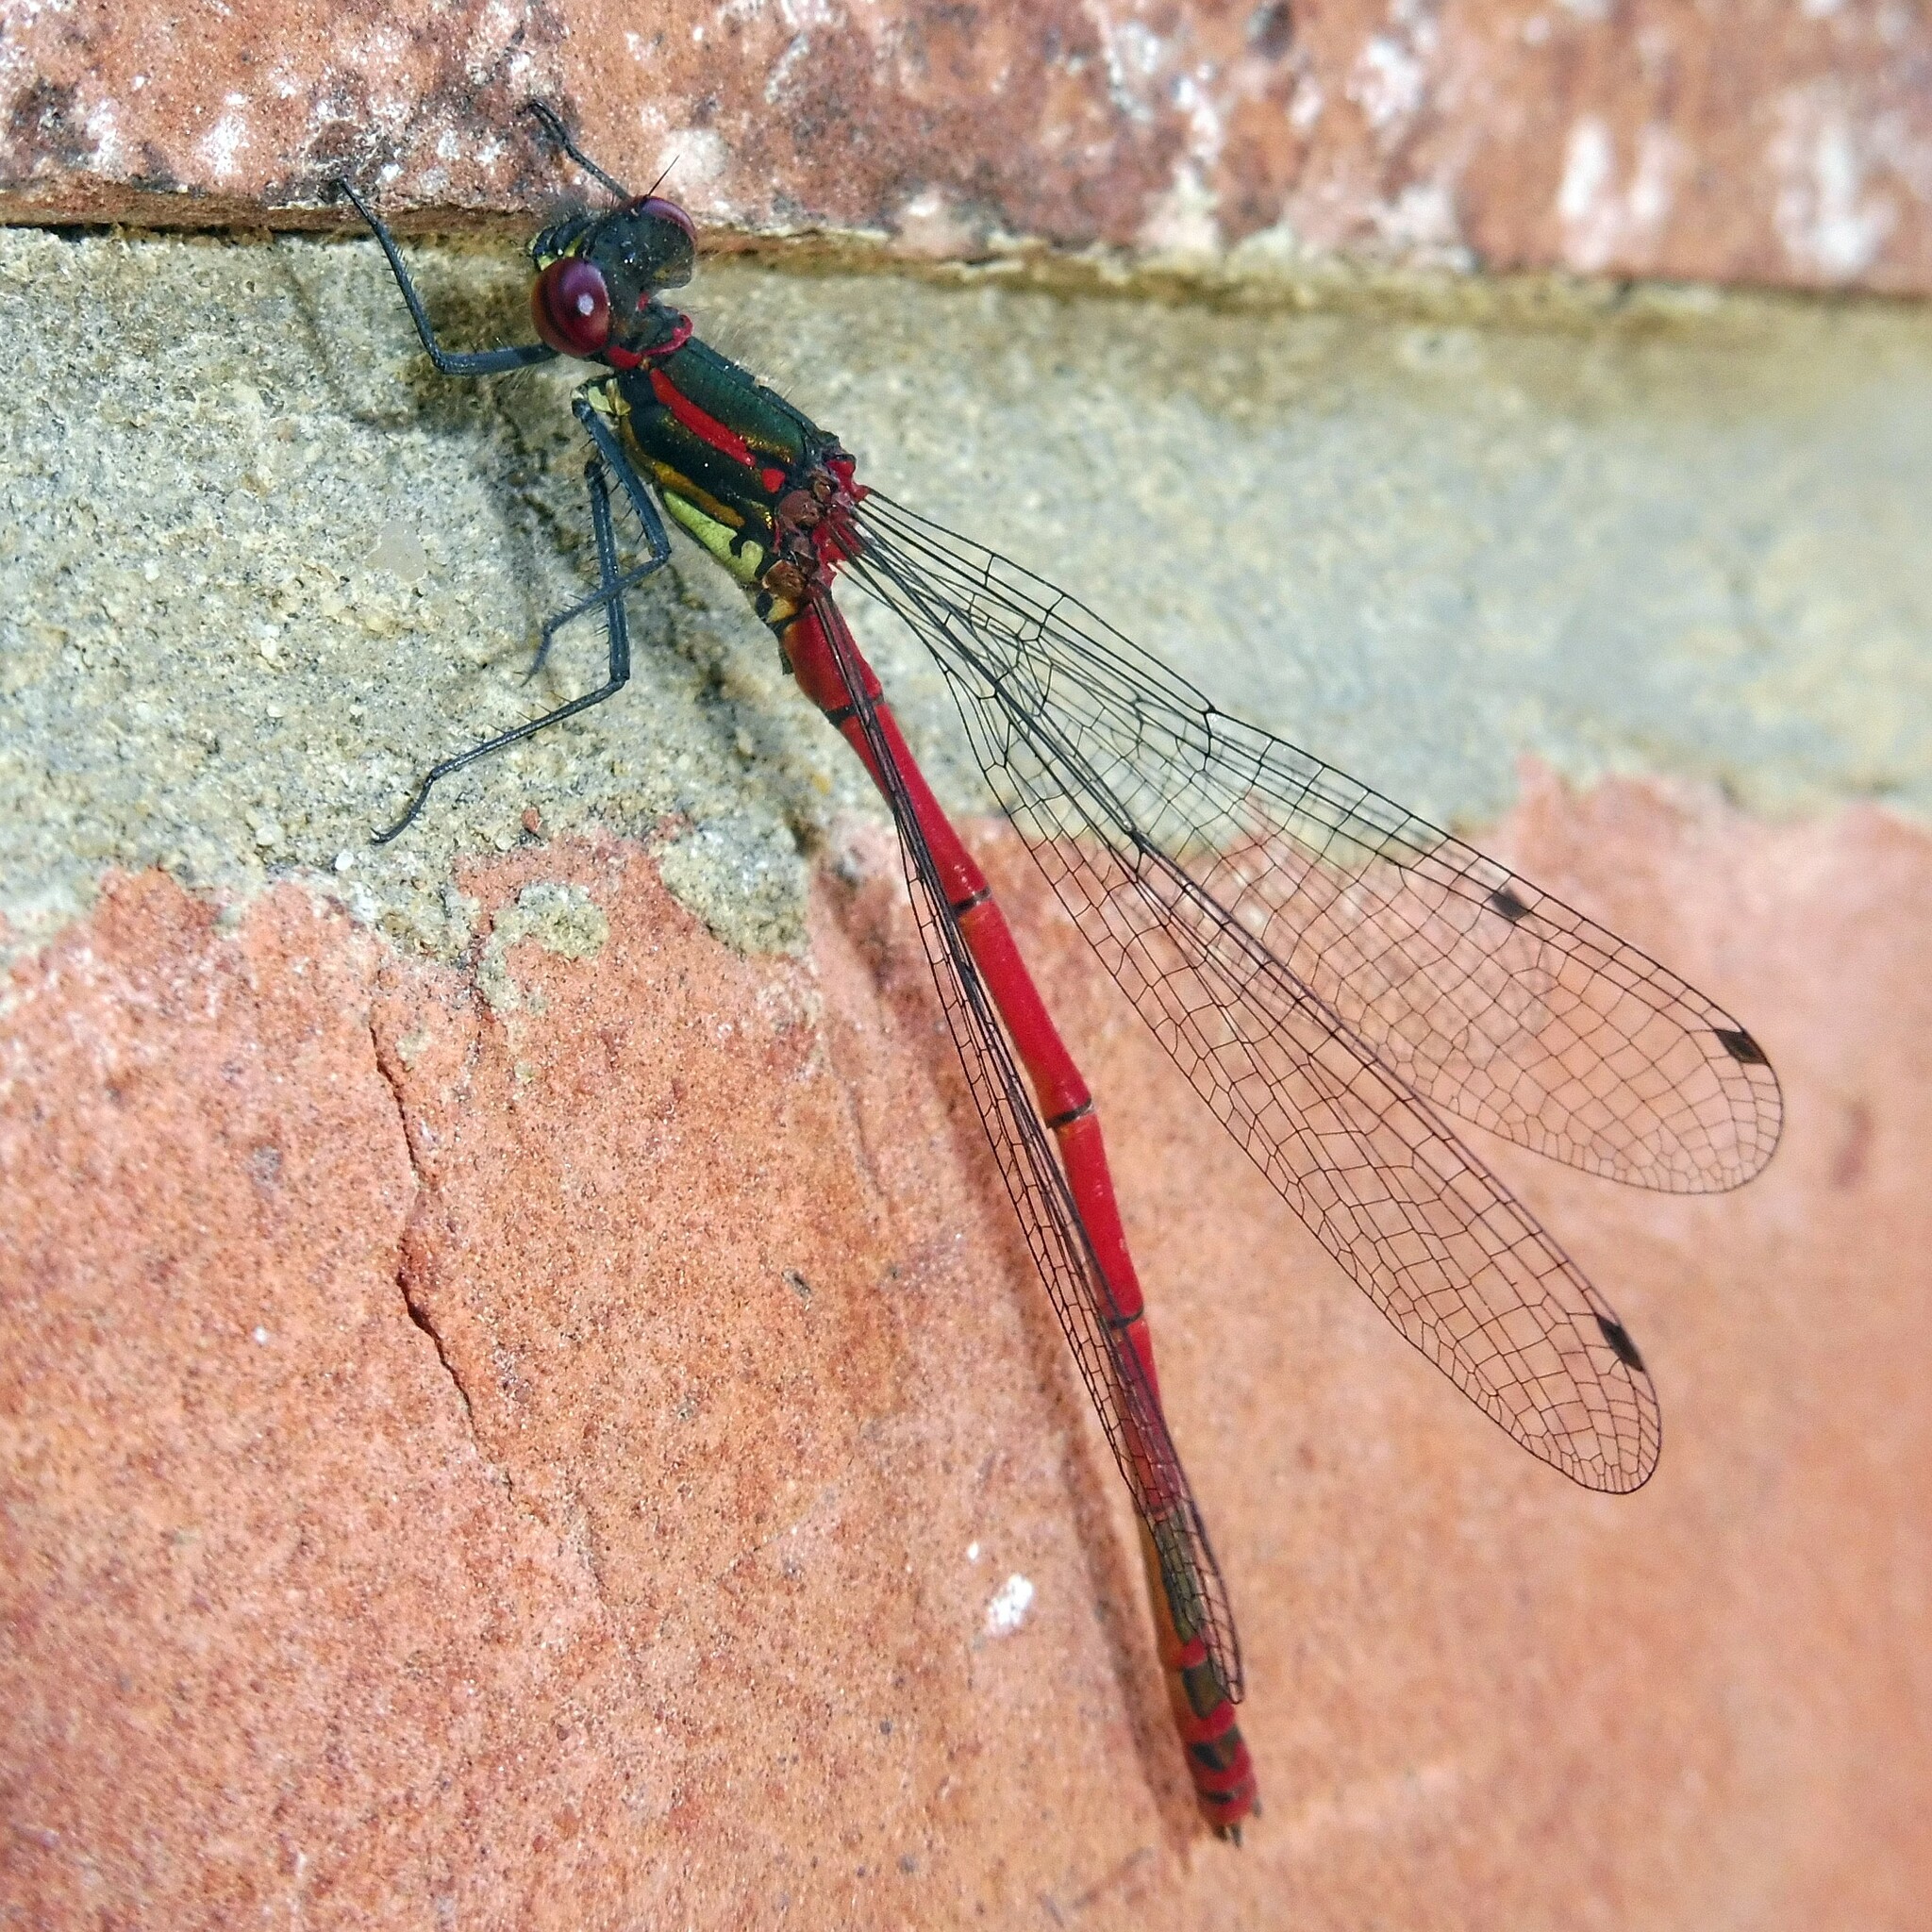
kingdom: Animalia
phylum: Arthropoda
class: Insecta
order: Odonata
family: Coenagrionidae
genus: Pyrrhosoma
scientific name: Pyrrhosoma nymphula
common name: Large red damsel
